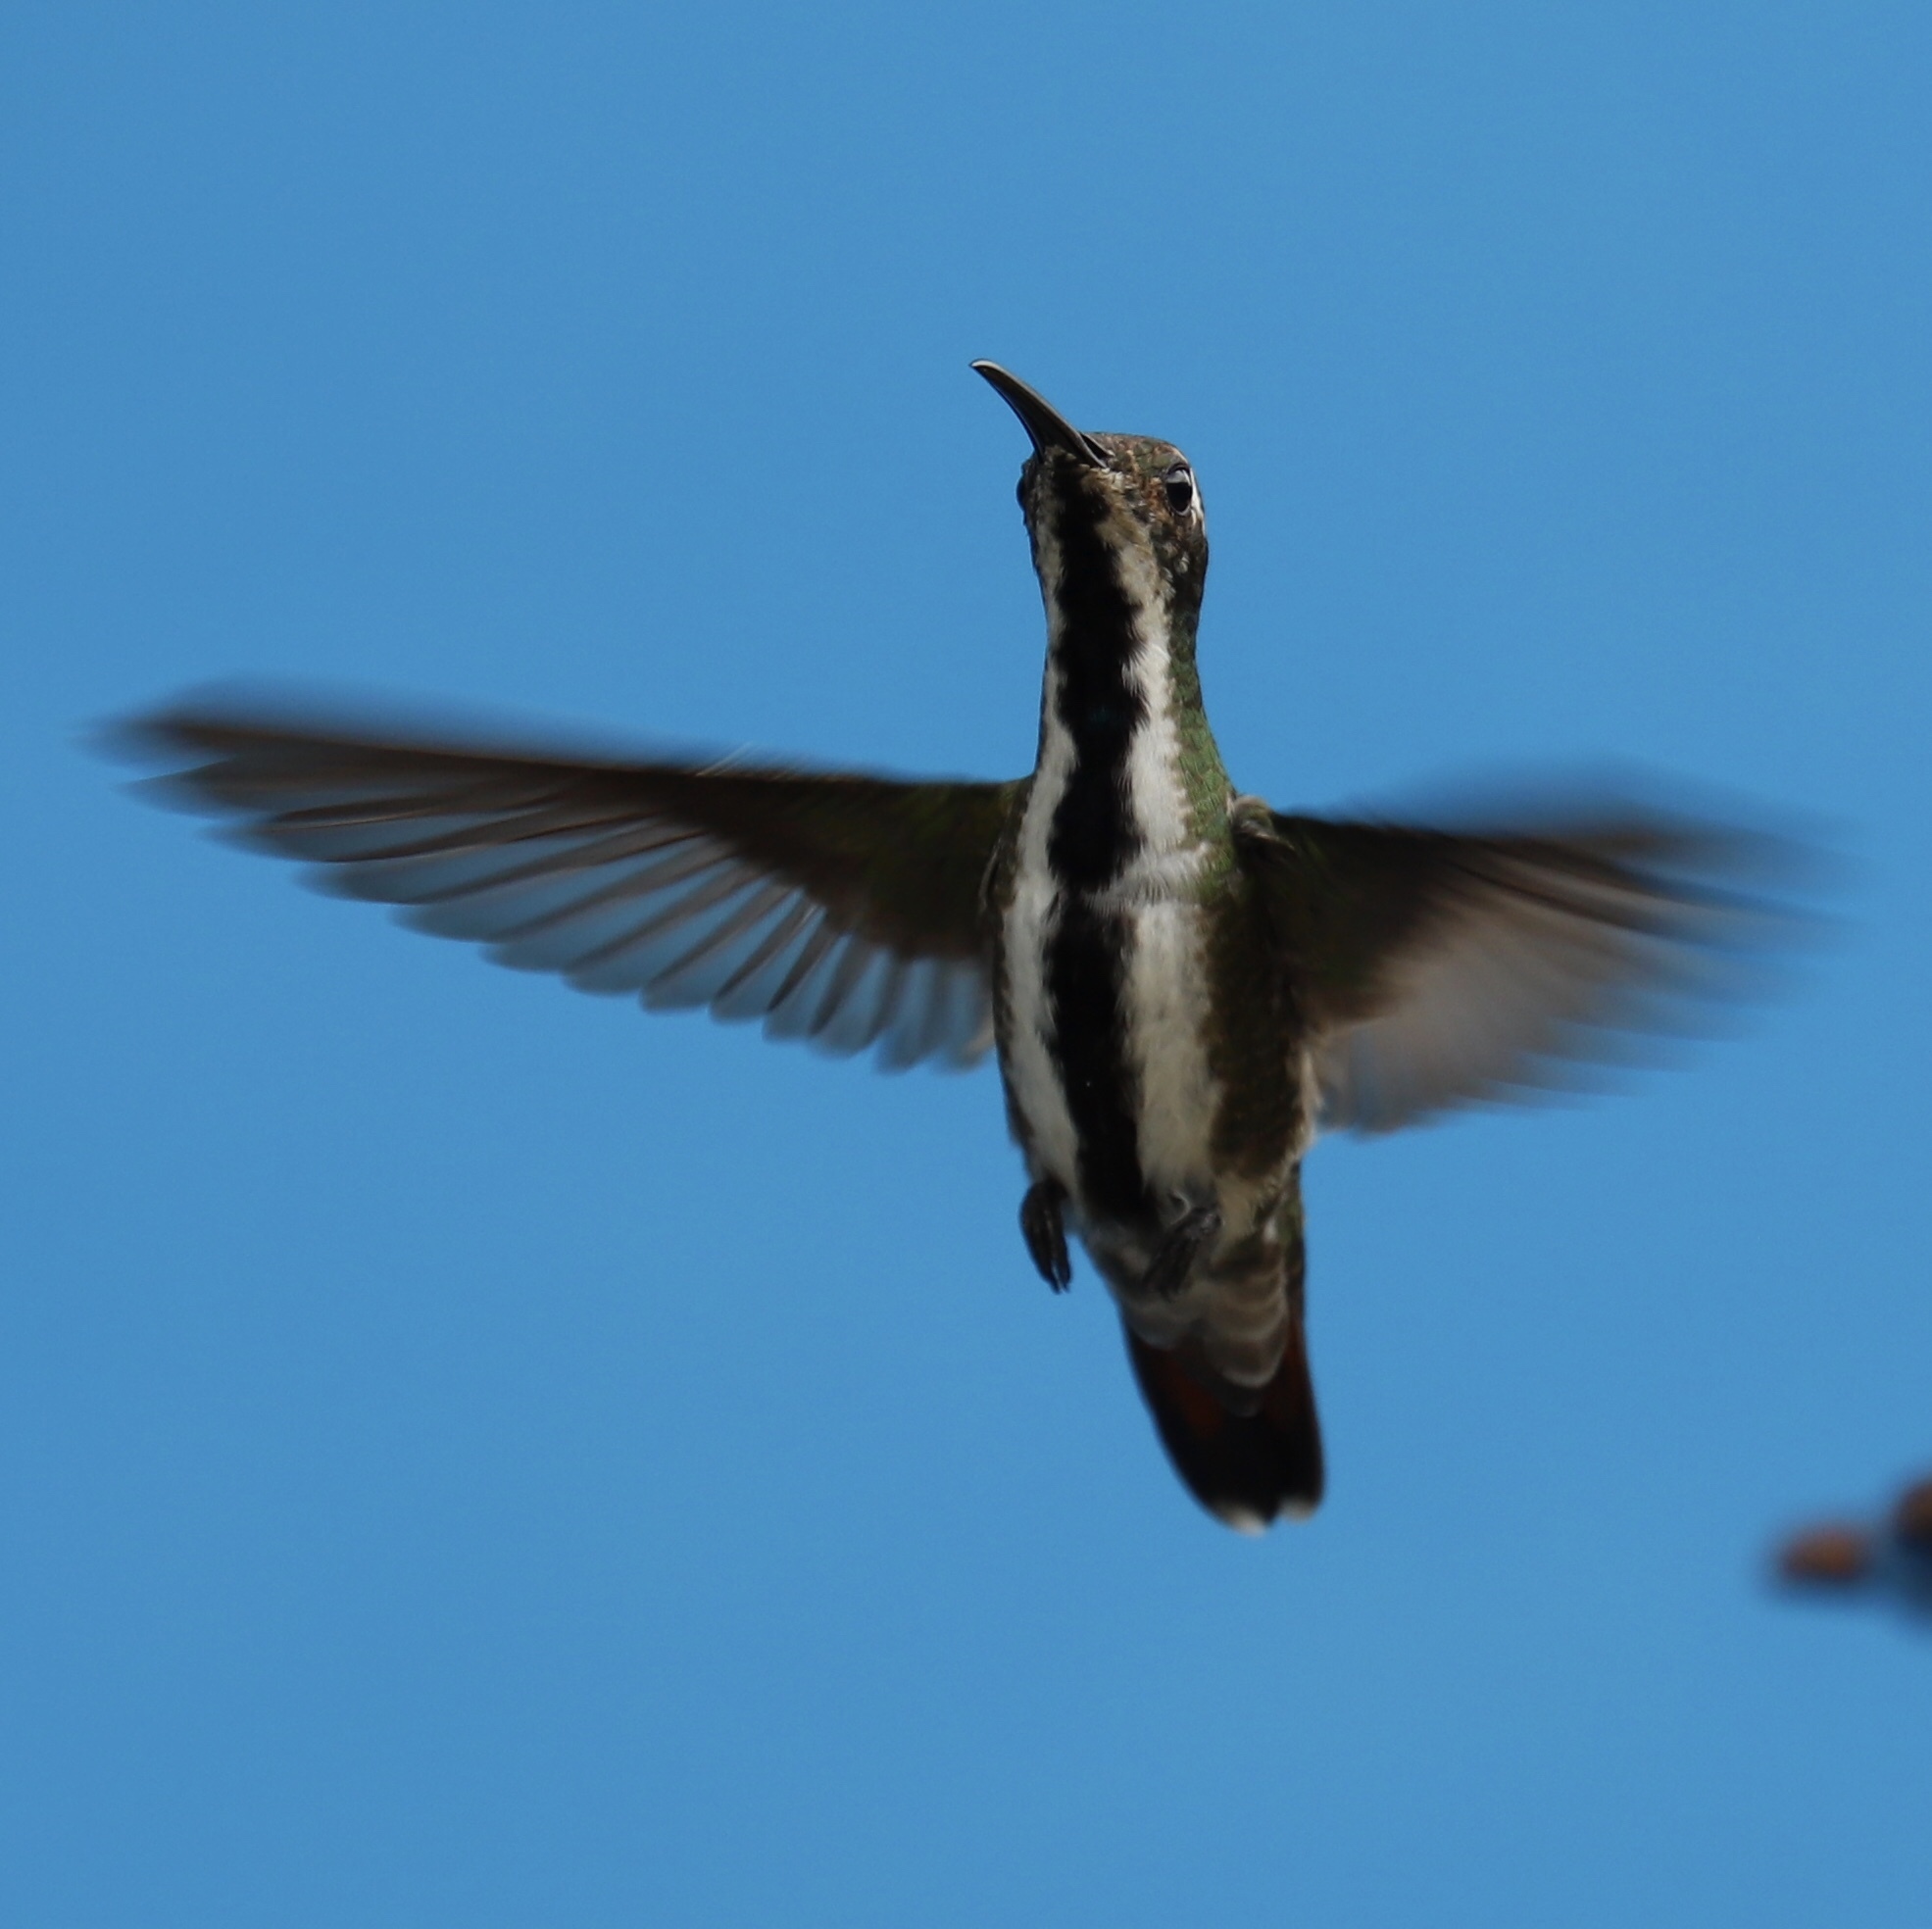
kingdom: Animalia
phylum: Chordata
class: Aves
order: Apodiformes
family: Trochilidae
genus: Anthracothorax
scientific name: Anthracothorax nigricollis
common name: Black-throated mango
